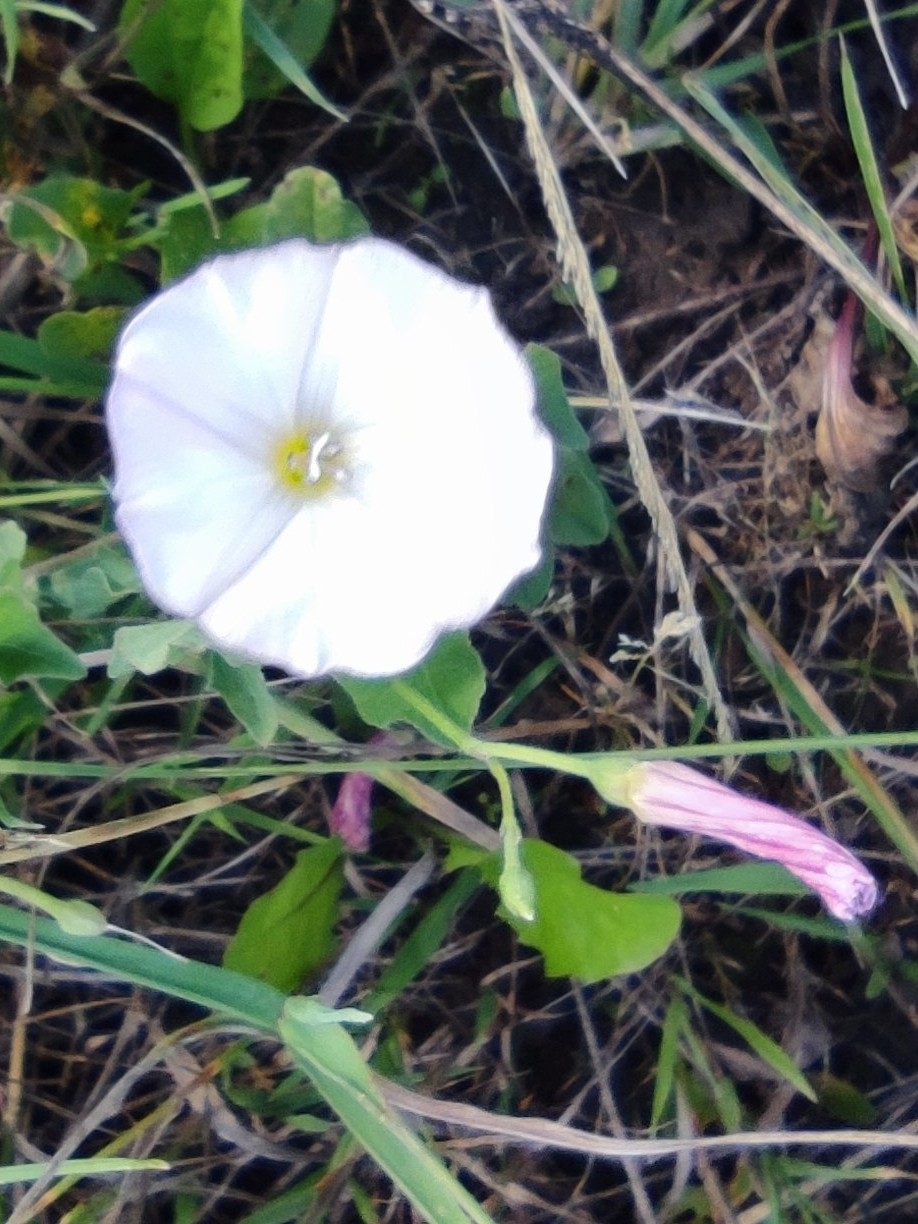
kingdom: Plantae
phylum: Tracheophyta
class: Magnoliopsida
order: Solanales
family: Convolvulaceae
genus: Convolvulus
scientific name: Convolvulus arvensis
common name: Field bindweed
